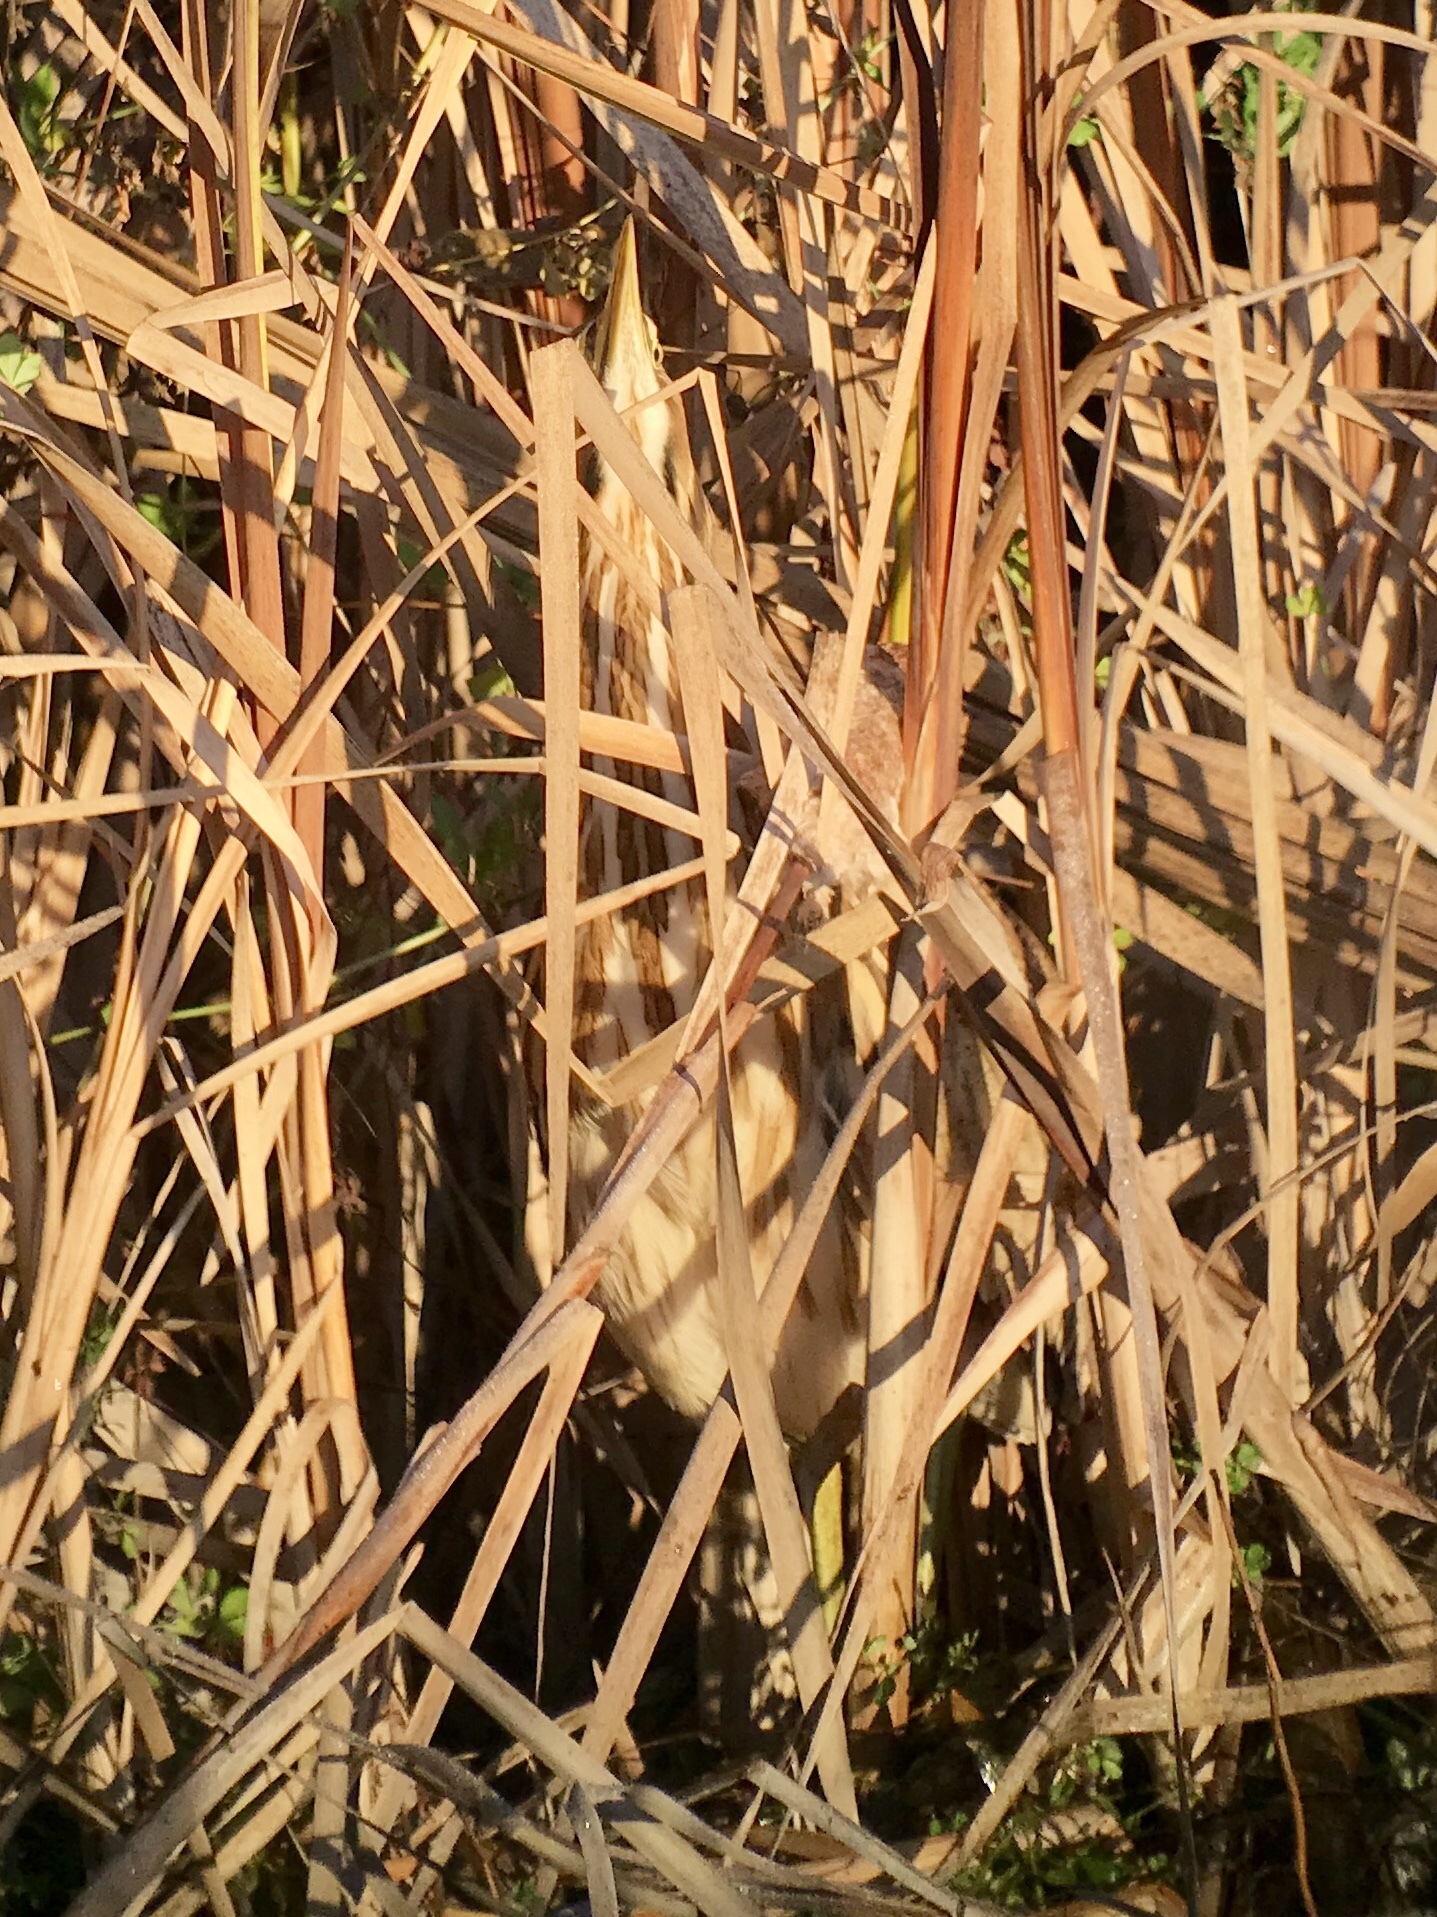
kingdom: Animalia
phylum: Chordata
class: Aves
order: Pelecaniformes
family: Ardeidae
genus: Botaurus
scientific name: Botaurus lentiginosus
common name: American bittern
